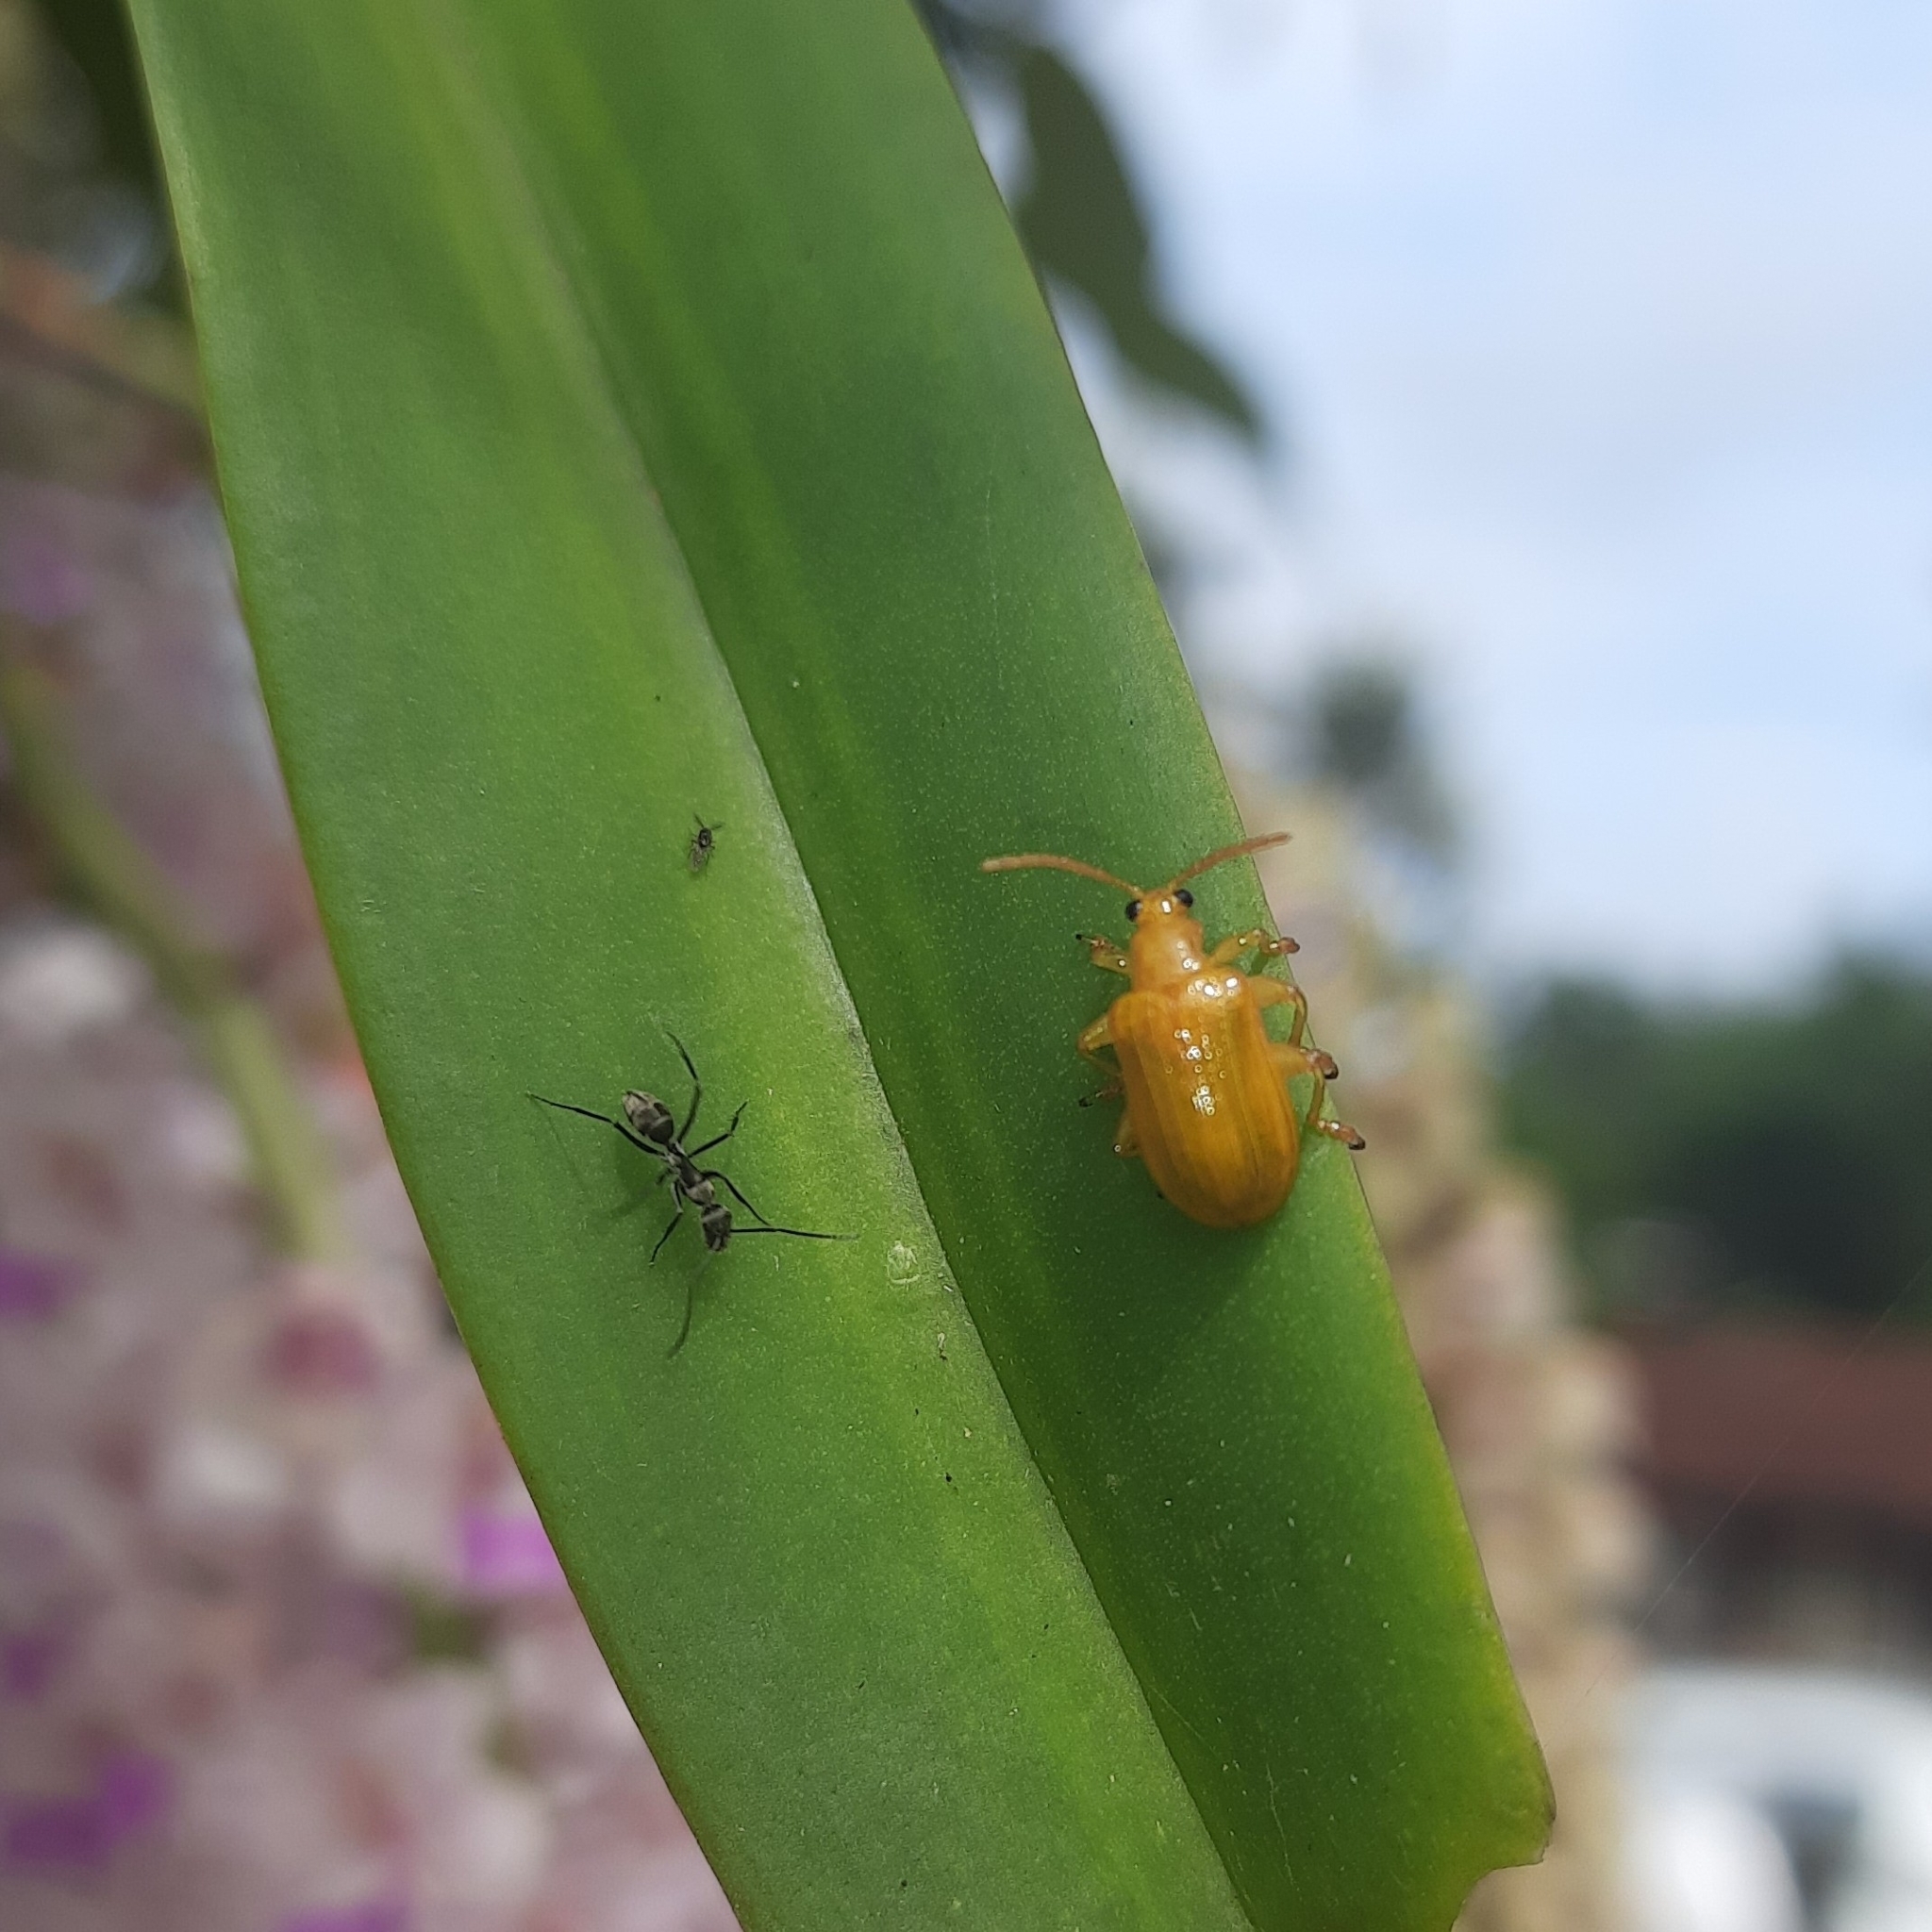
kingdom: Animalia
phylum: Arthropoda
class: Insecta
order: Coleoptera
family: Chrysomelidae
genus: Baliosus
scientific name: Baliosus pectoralis
